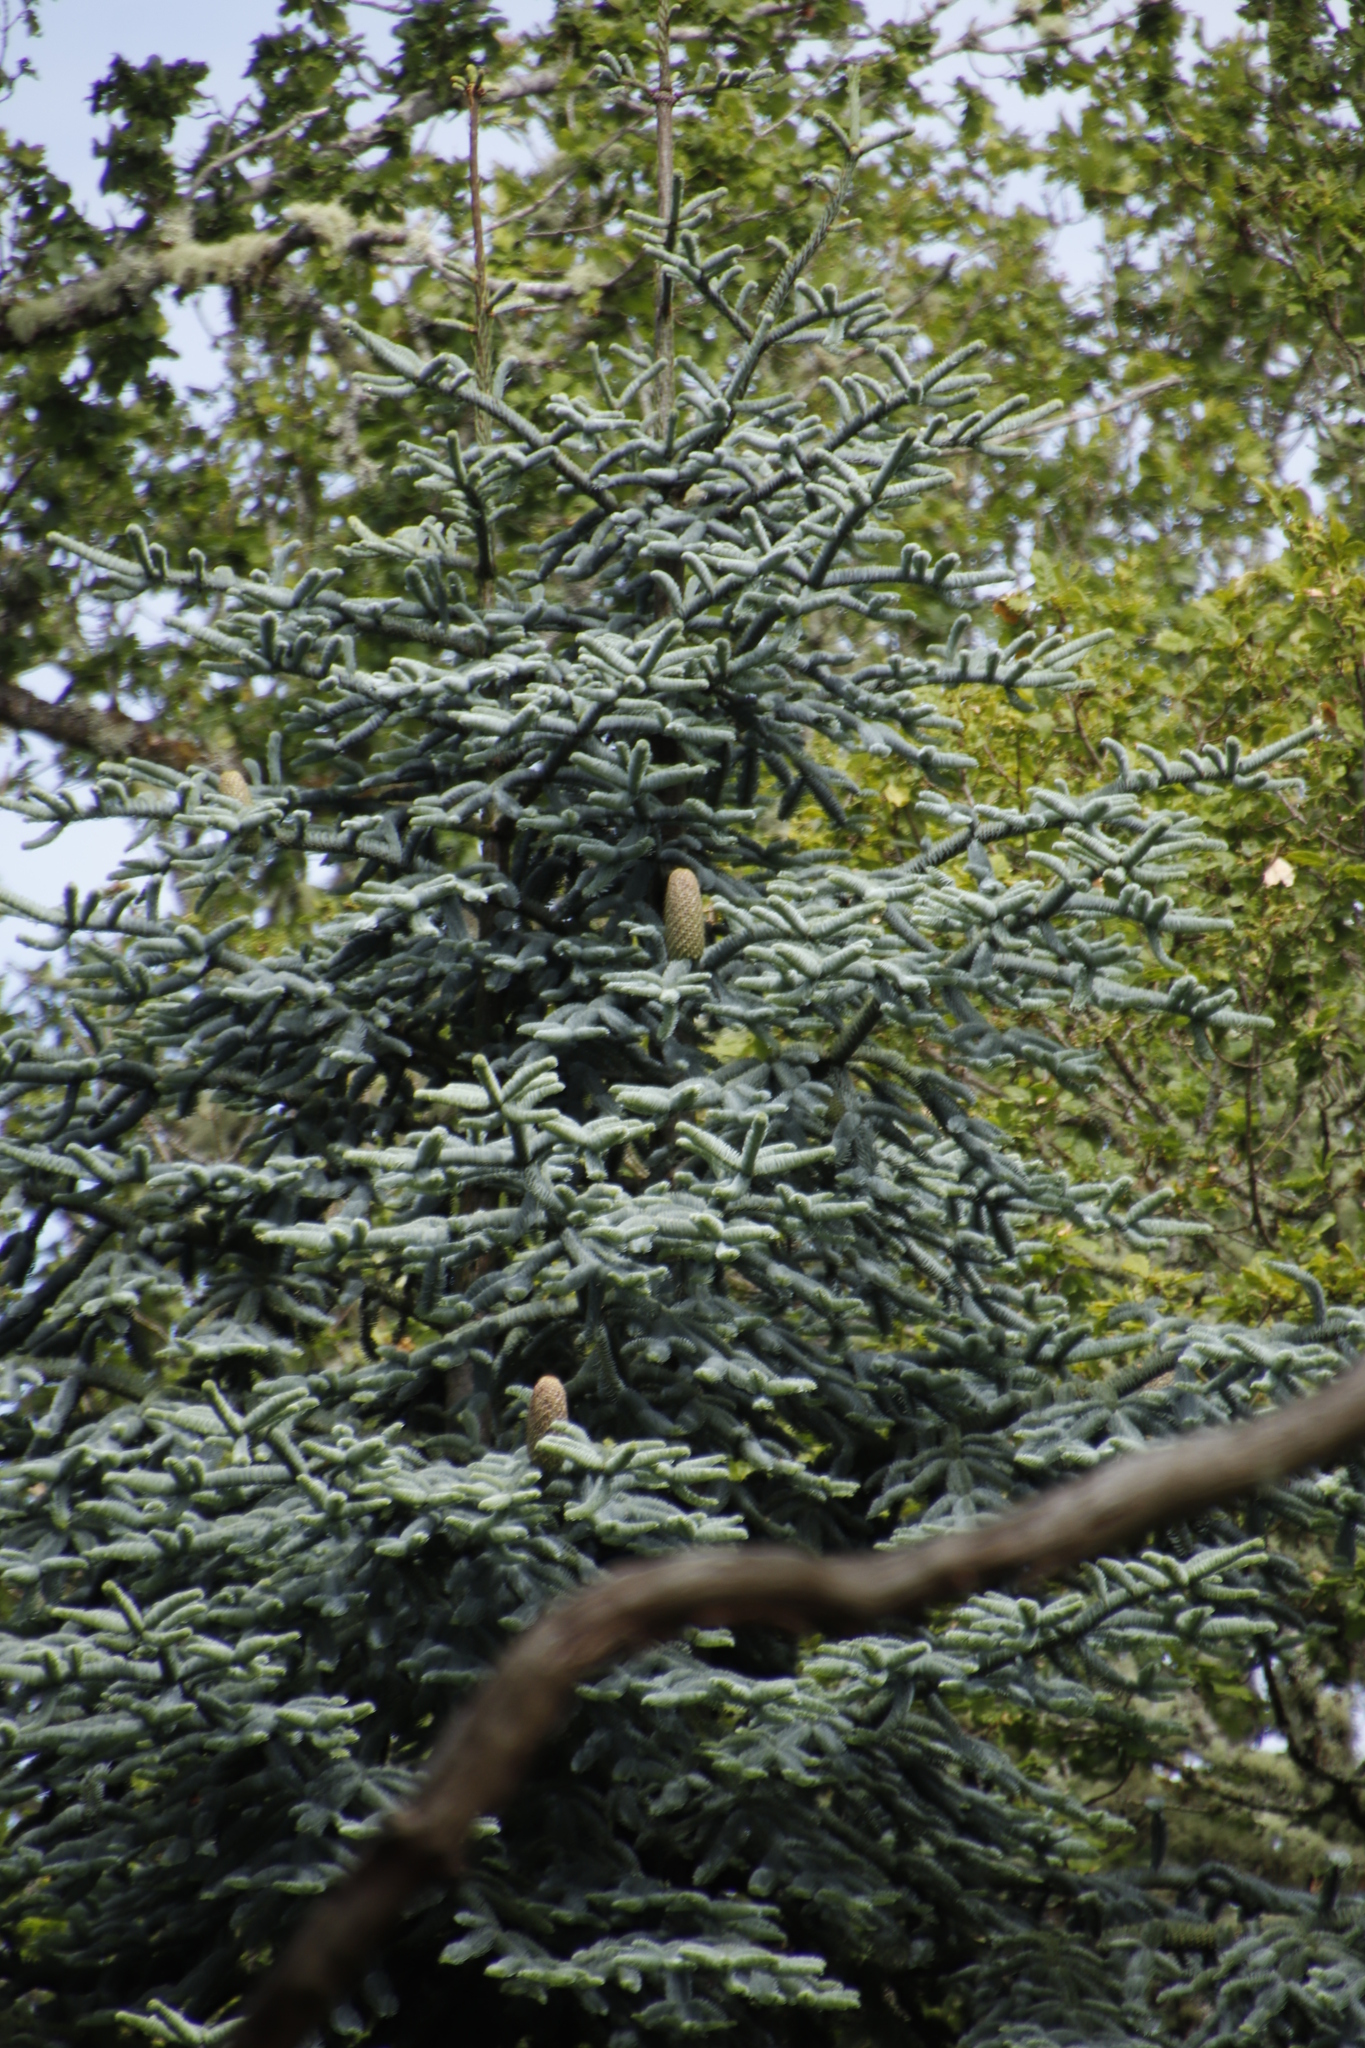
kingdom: Plantae
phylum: Tracheophyta
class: Pinopsida
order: Pinales
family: Pinaceae
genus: Abies
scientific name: Abies procera
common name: Noble fir
